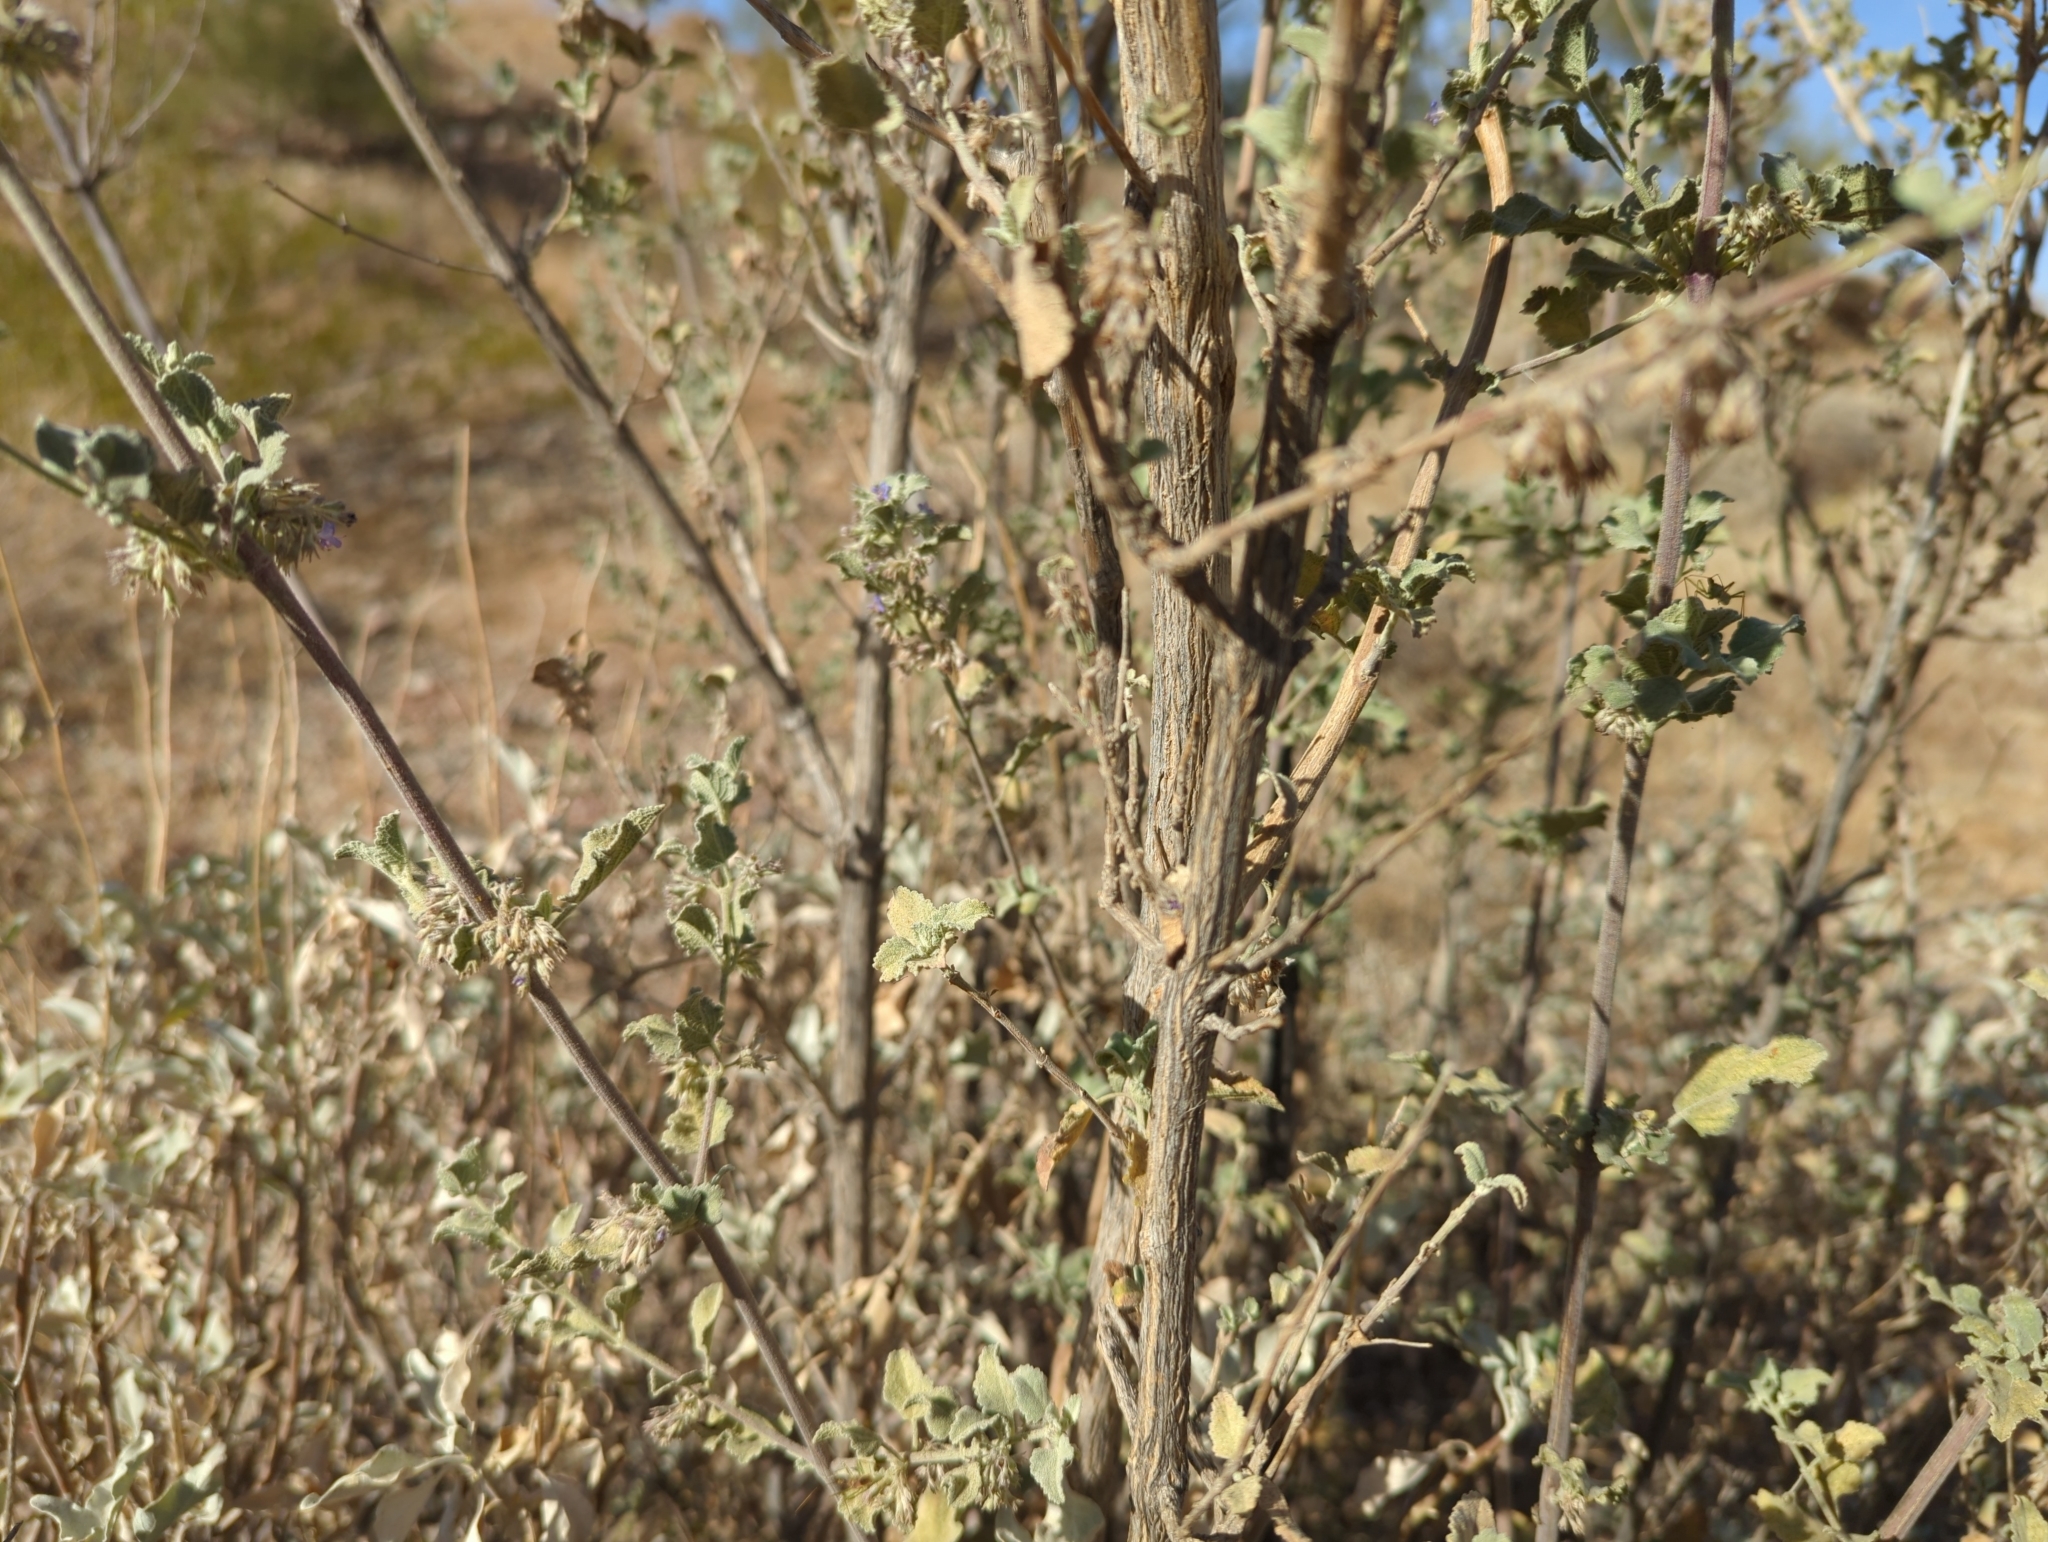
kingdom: Plantae
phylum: Tracheophyta
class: Magnoliopsida
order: Lamiales
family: Lamiaceae
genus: Condea
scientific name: Condea emoryi
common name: Chia
